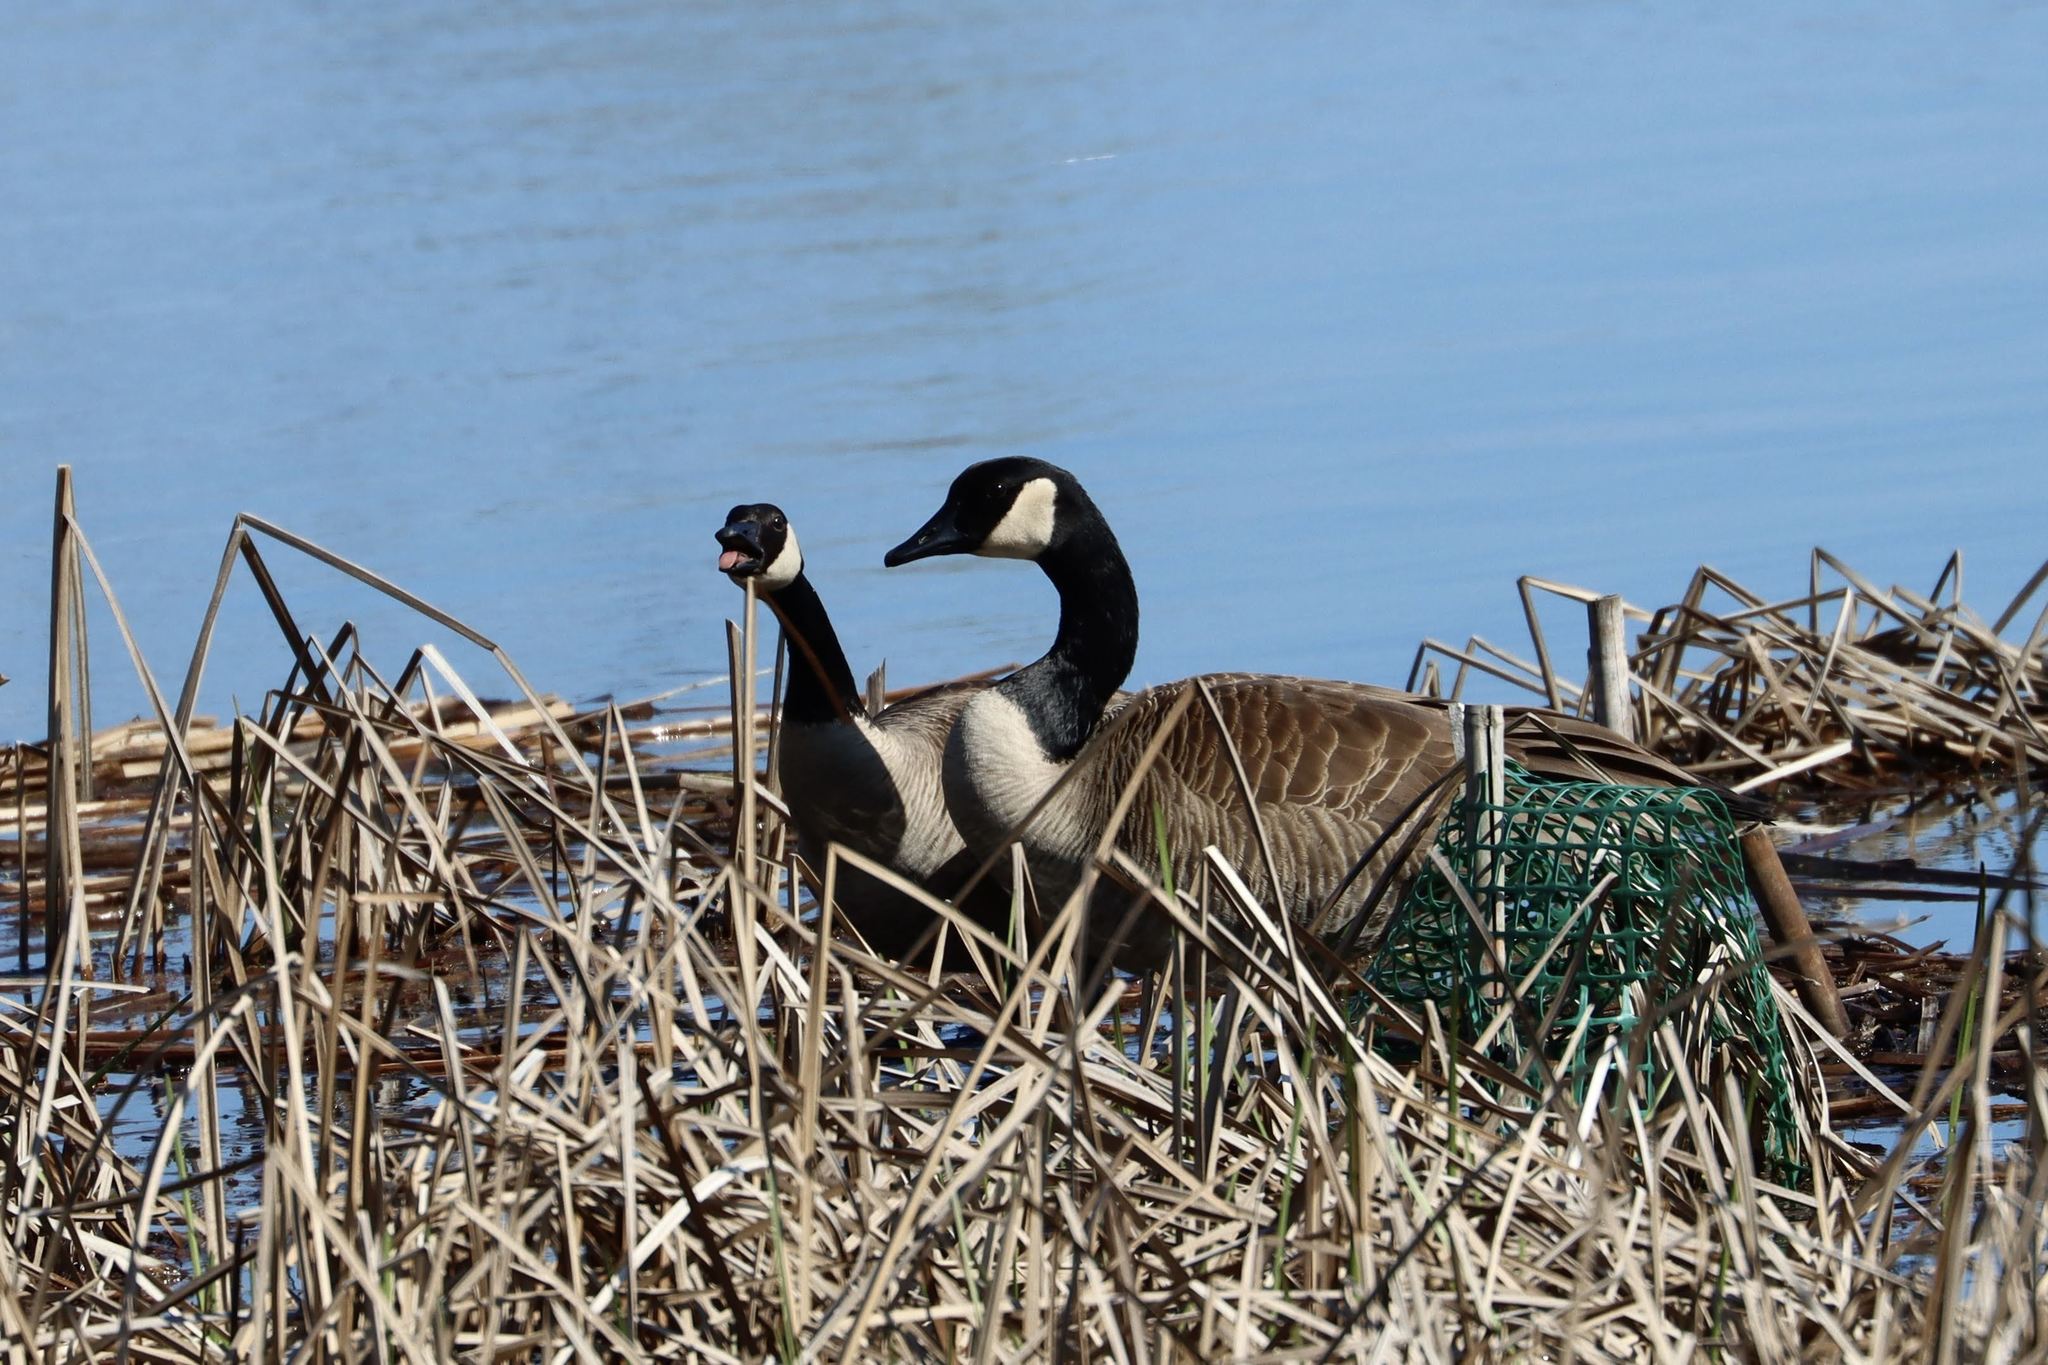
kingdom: Animalia
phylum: Chordata
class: Aves
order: Anseriformes
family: Anatidae
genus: Branta
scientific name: Branta canadensis
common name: Canada goose
